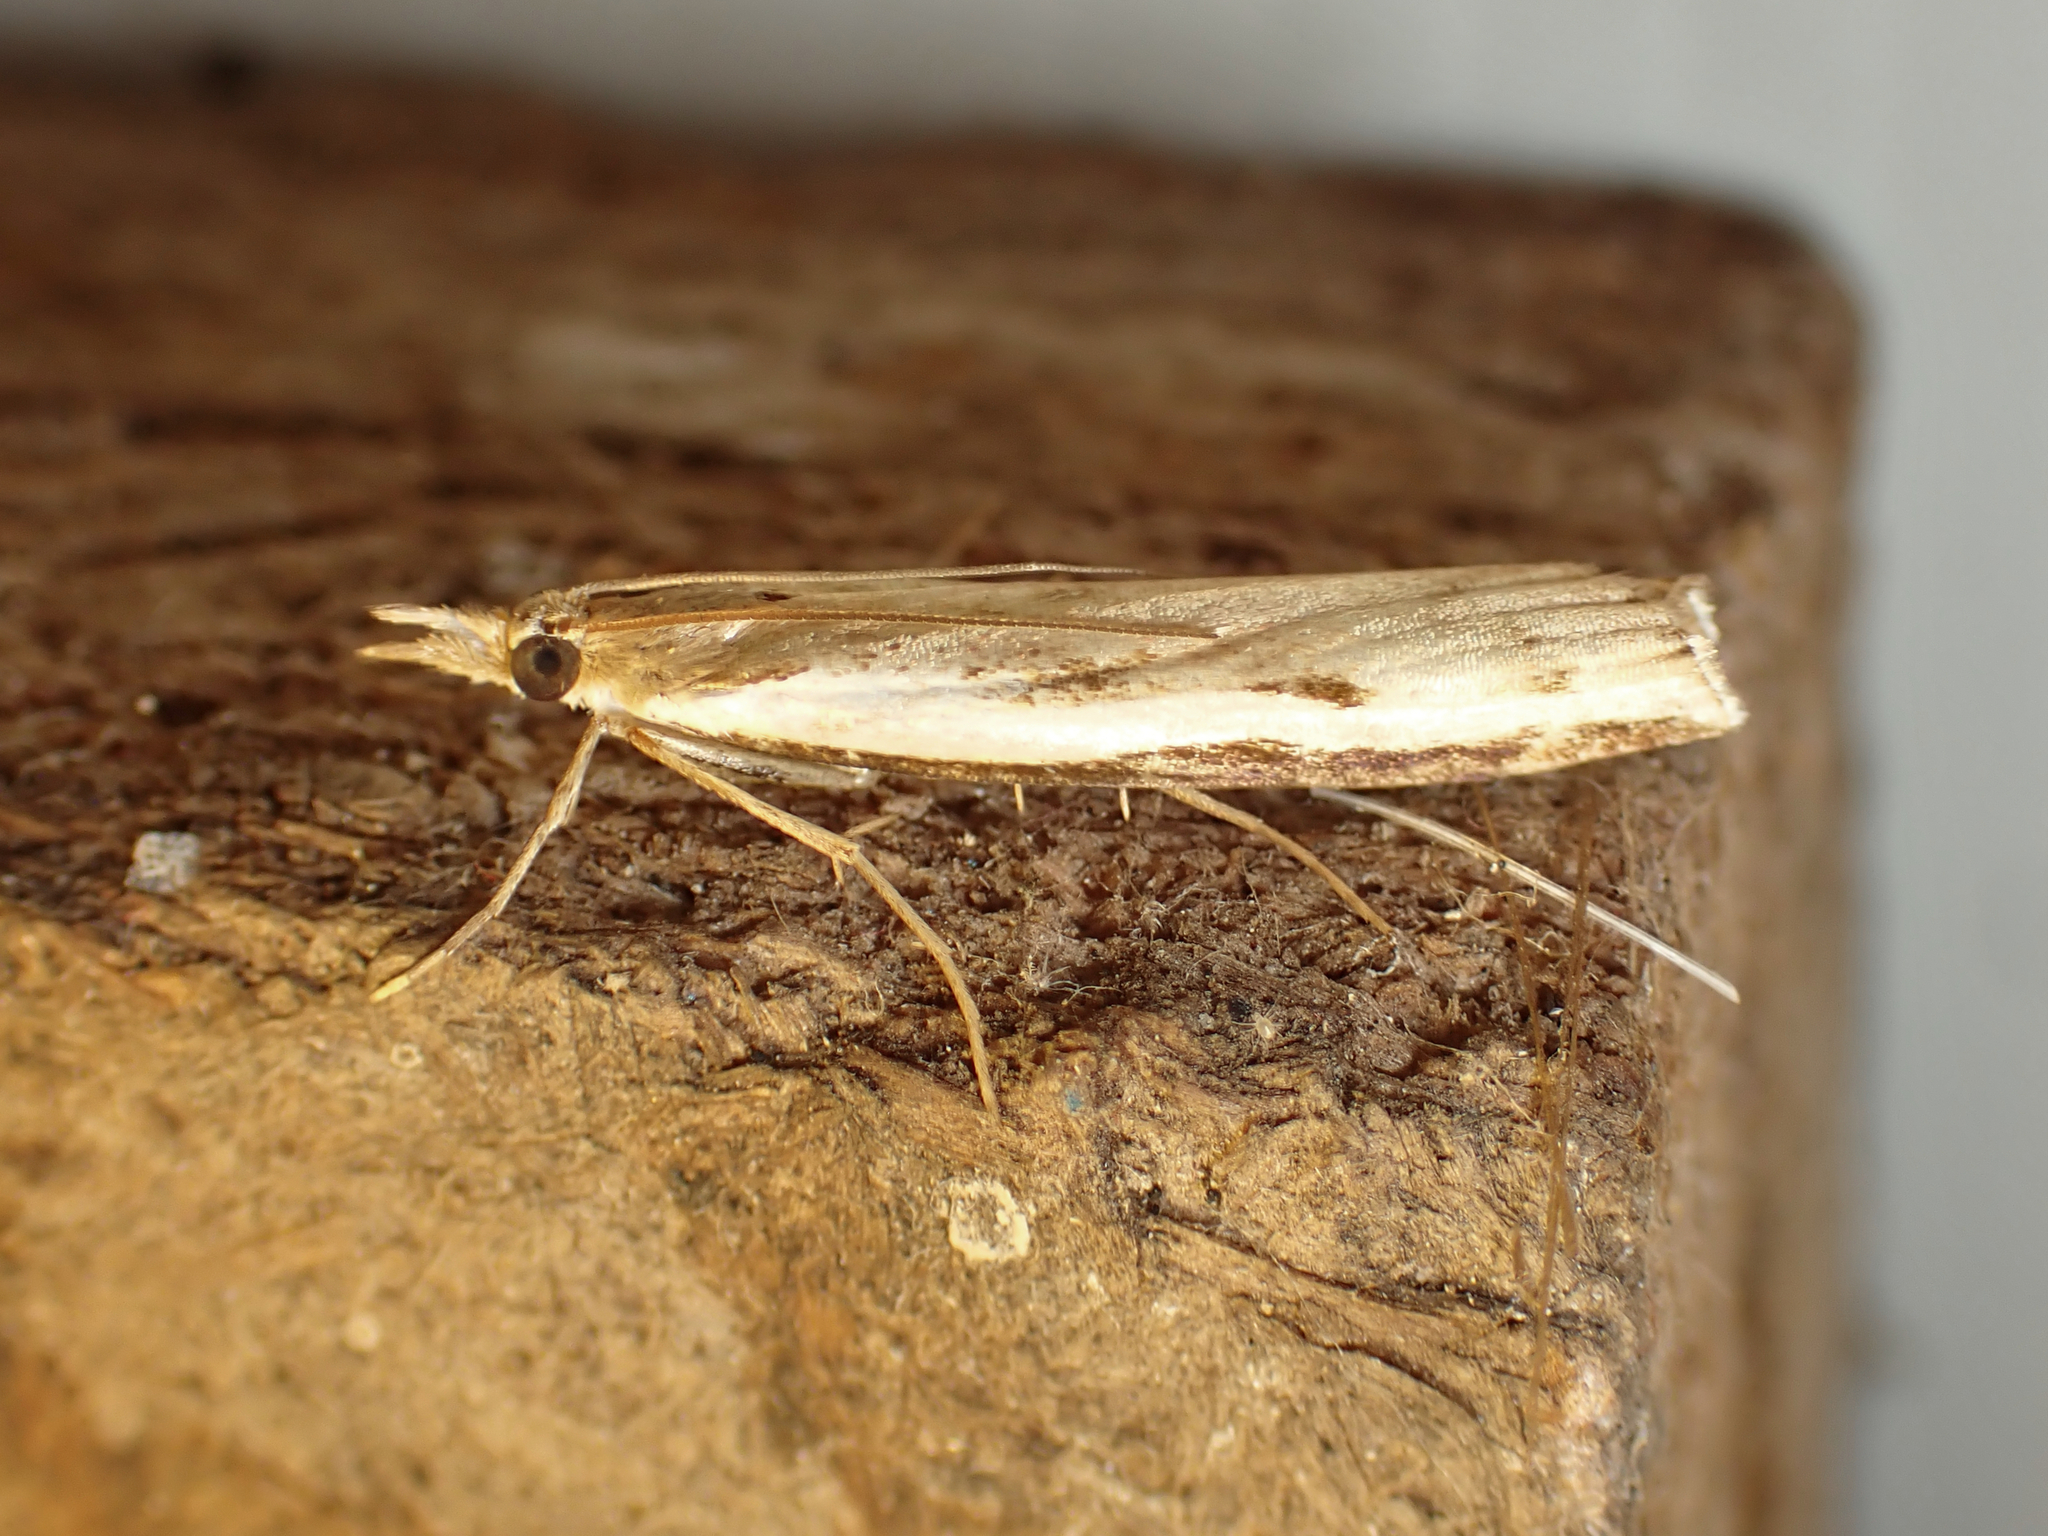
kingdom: Animalia
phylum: Arthropoda
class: Insecta
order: Lepidoptera
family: Crambidae
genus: Orocrambus
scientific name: Orocrambus flexuosellus
